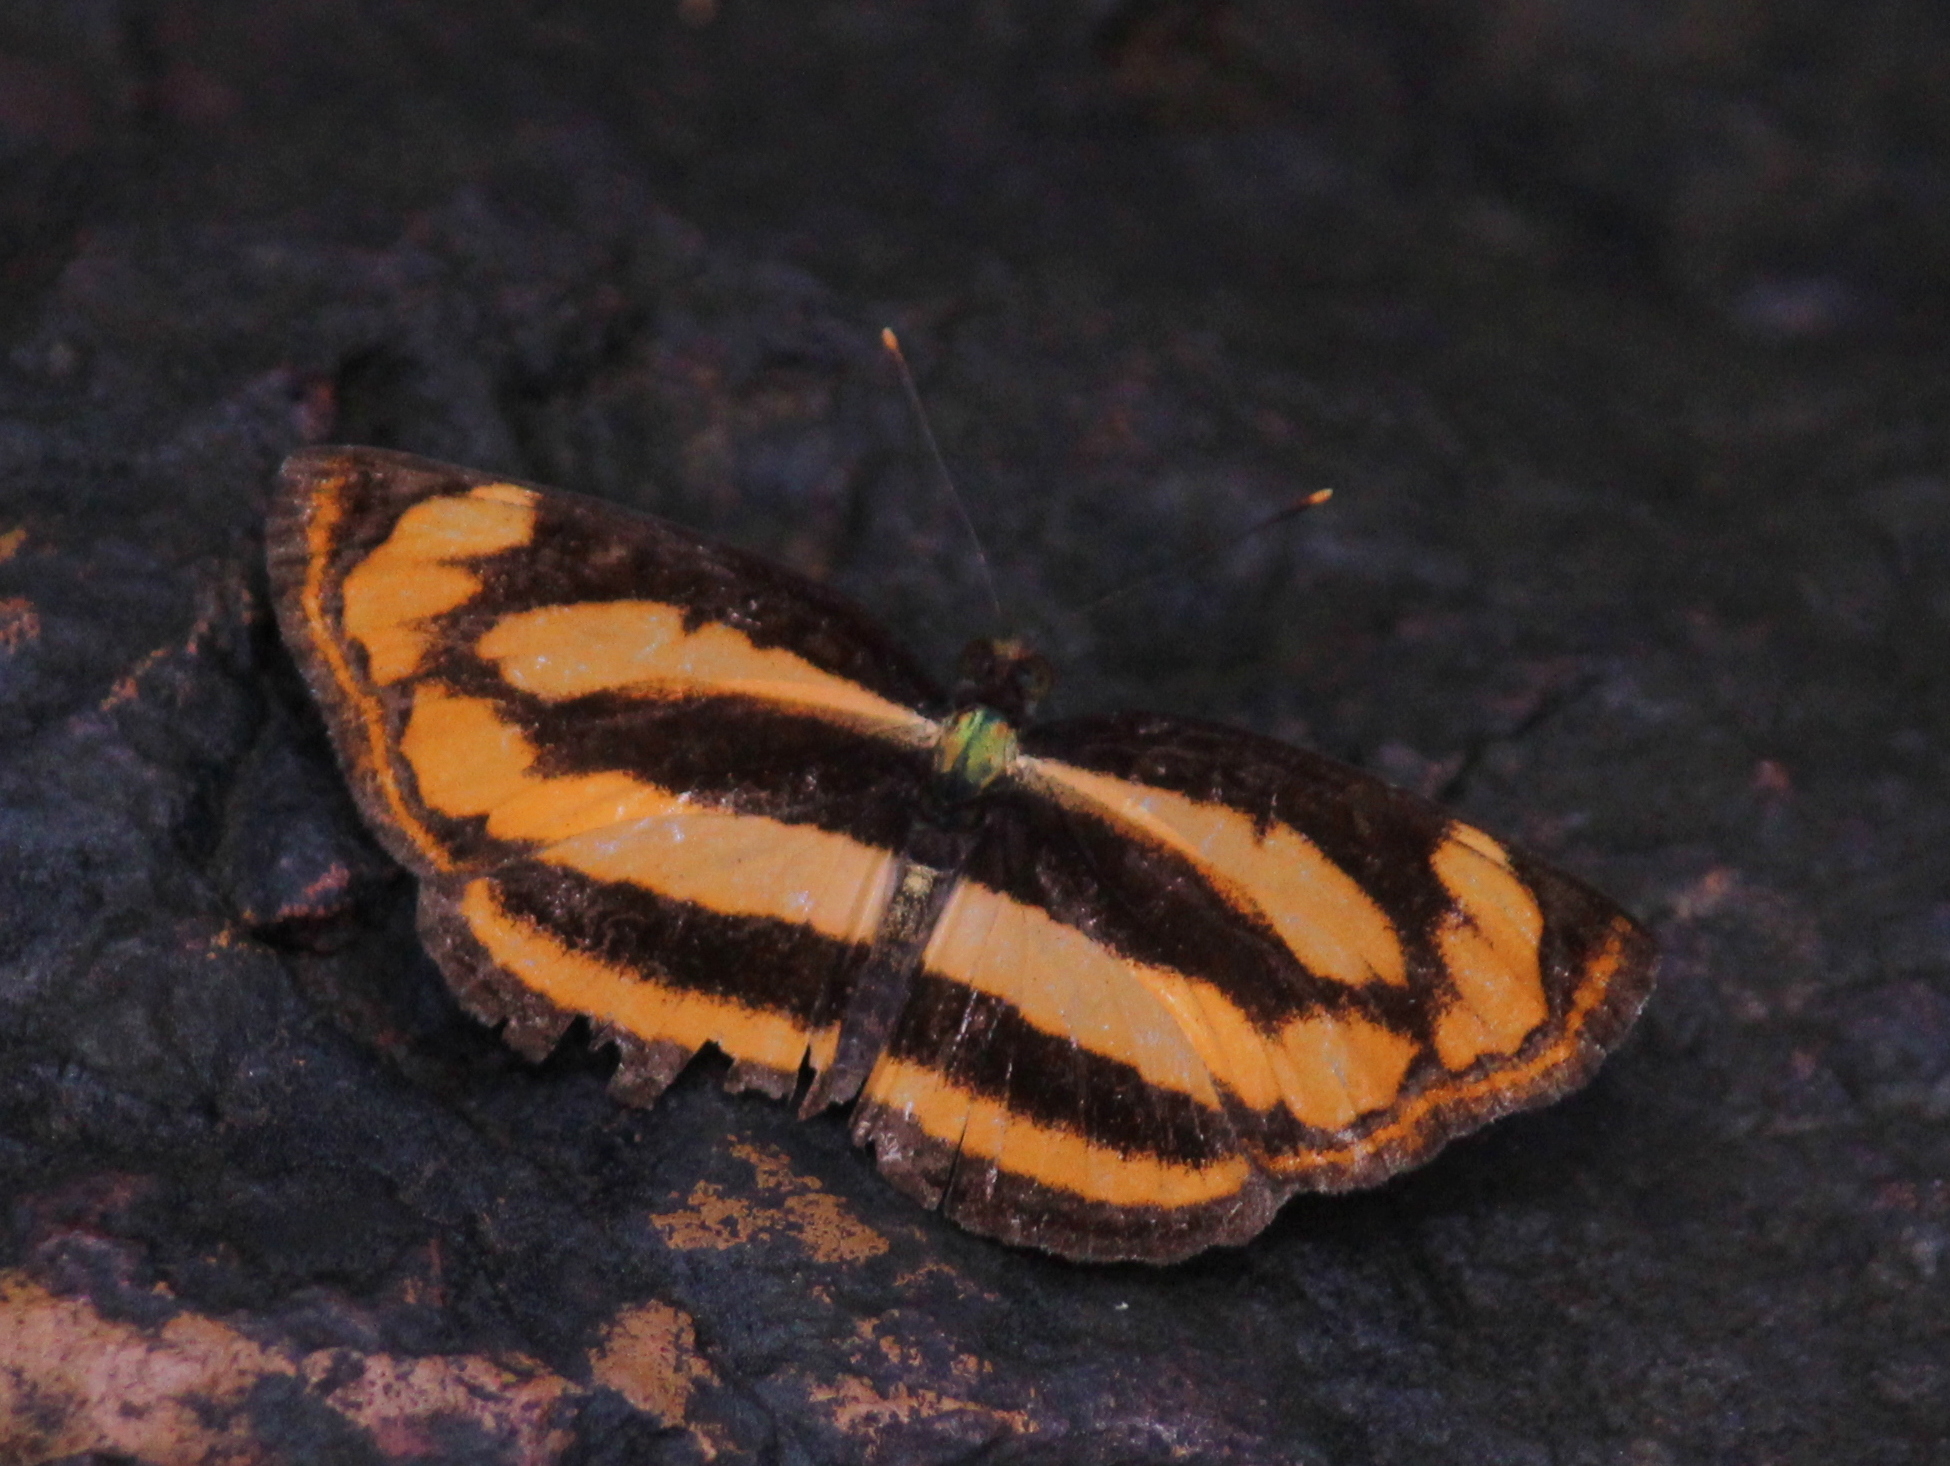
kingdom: Animalia
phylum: Arthropoda
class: Insecta
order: Lepidoptera
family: Nymphalidae
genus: Pantoporia
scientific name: Pantoporia hordonia
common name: Common lascar
